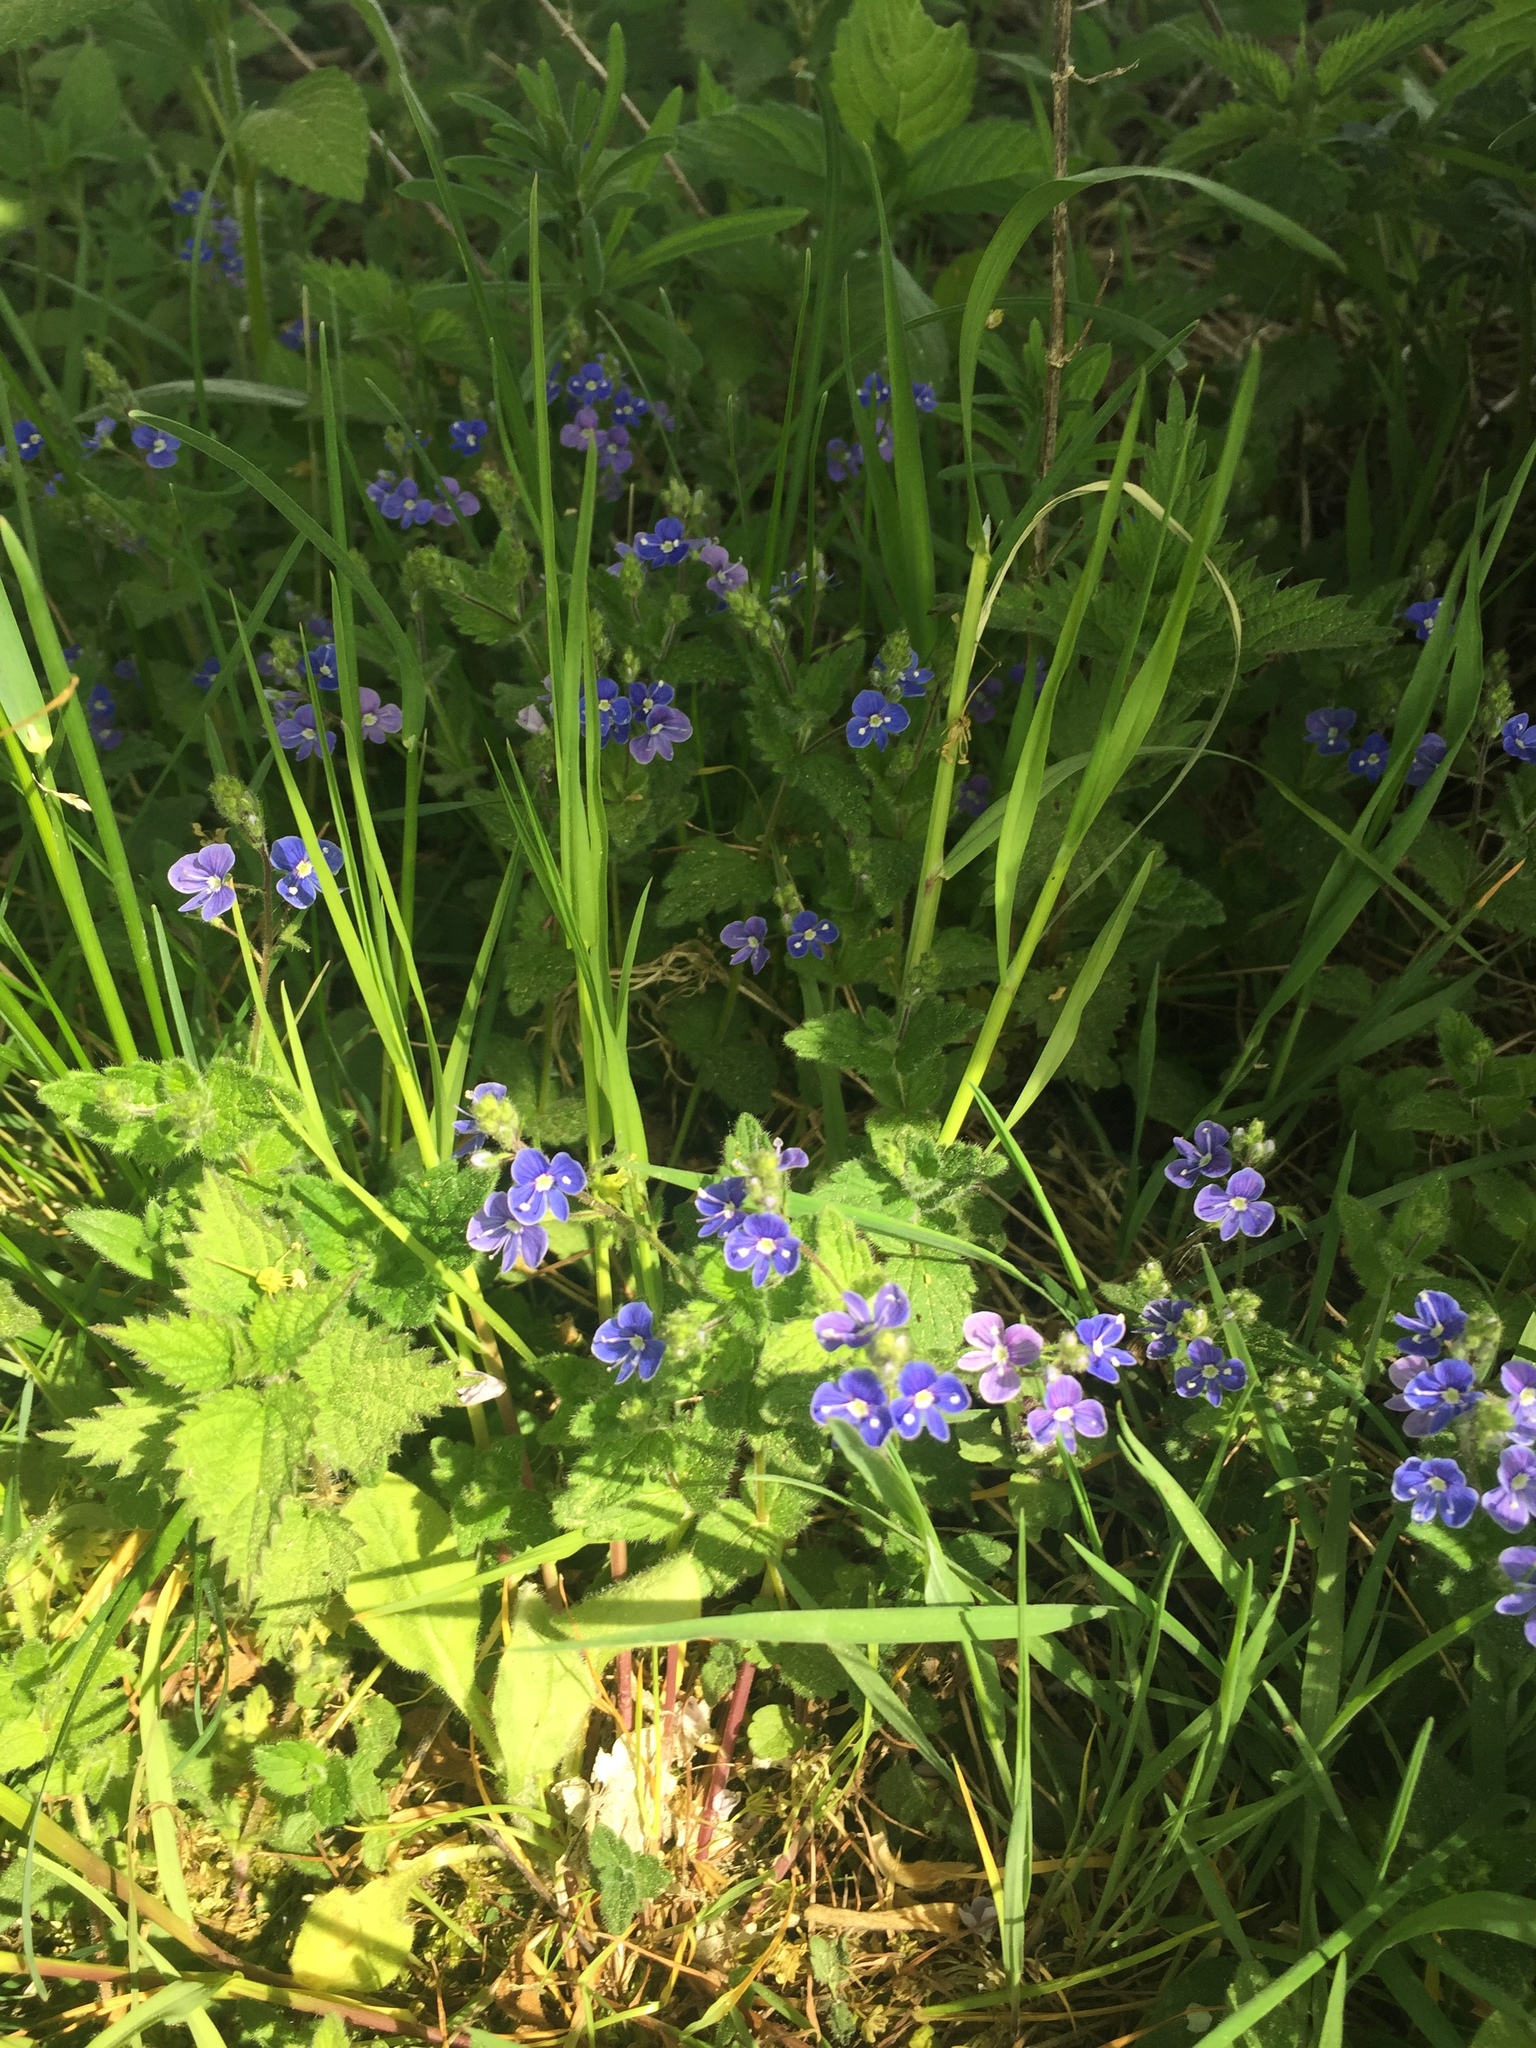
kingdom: Plantae
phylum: Tracheophyta
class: Magnoliopsida
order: Lamiales
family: Plantaginaceae
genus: Veronica
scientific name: Veronica chamaedrys
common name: Germander speedwell
